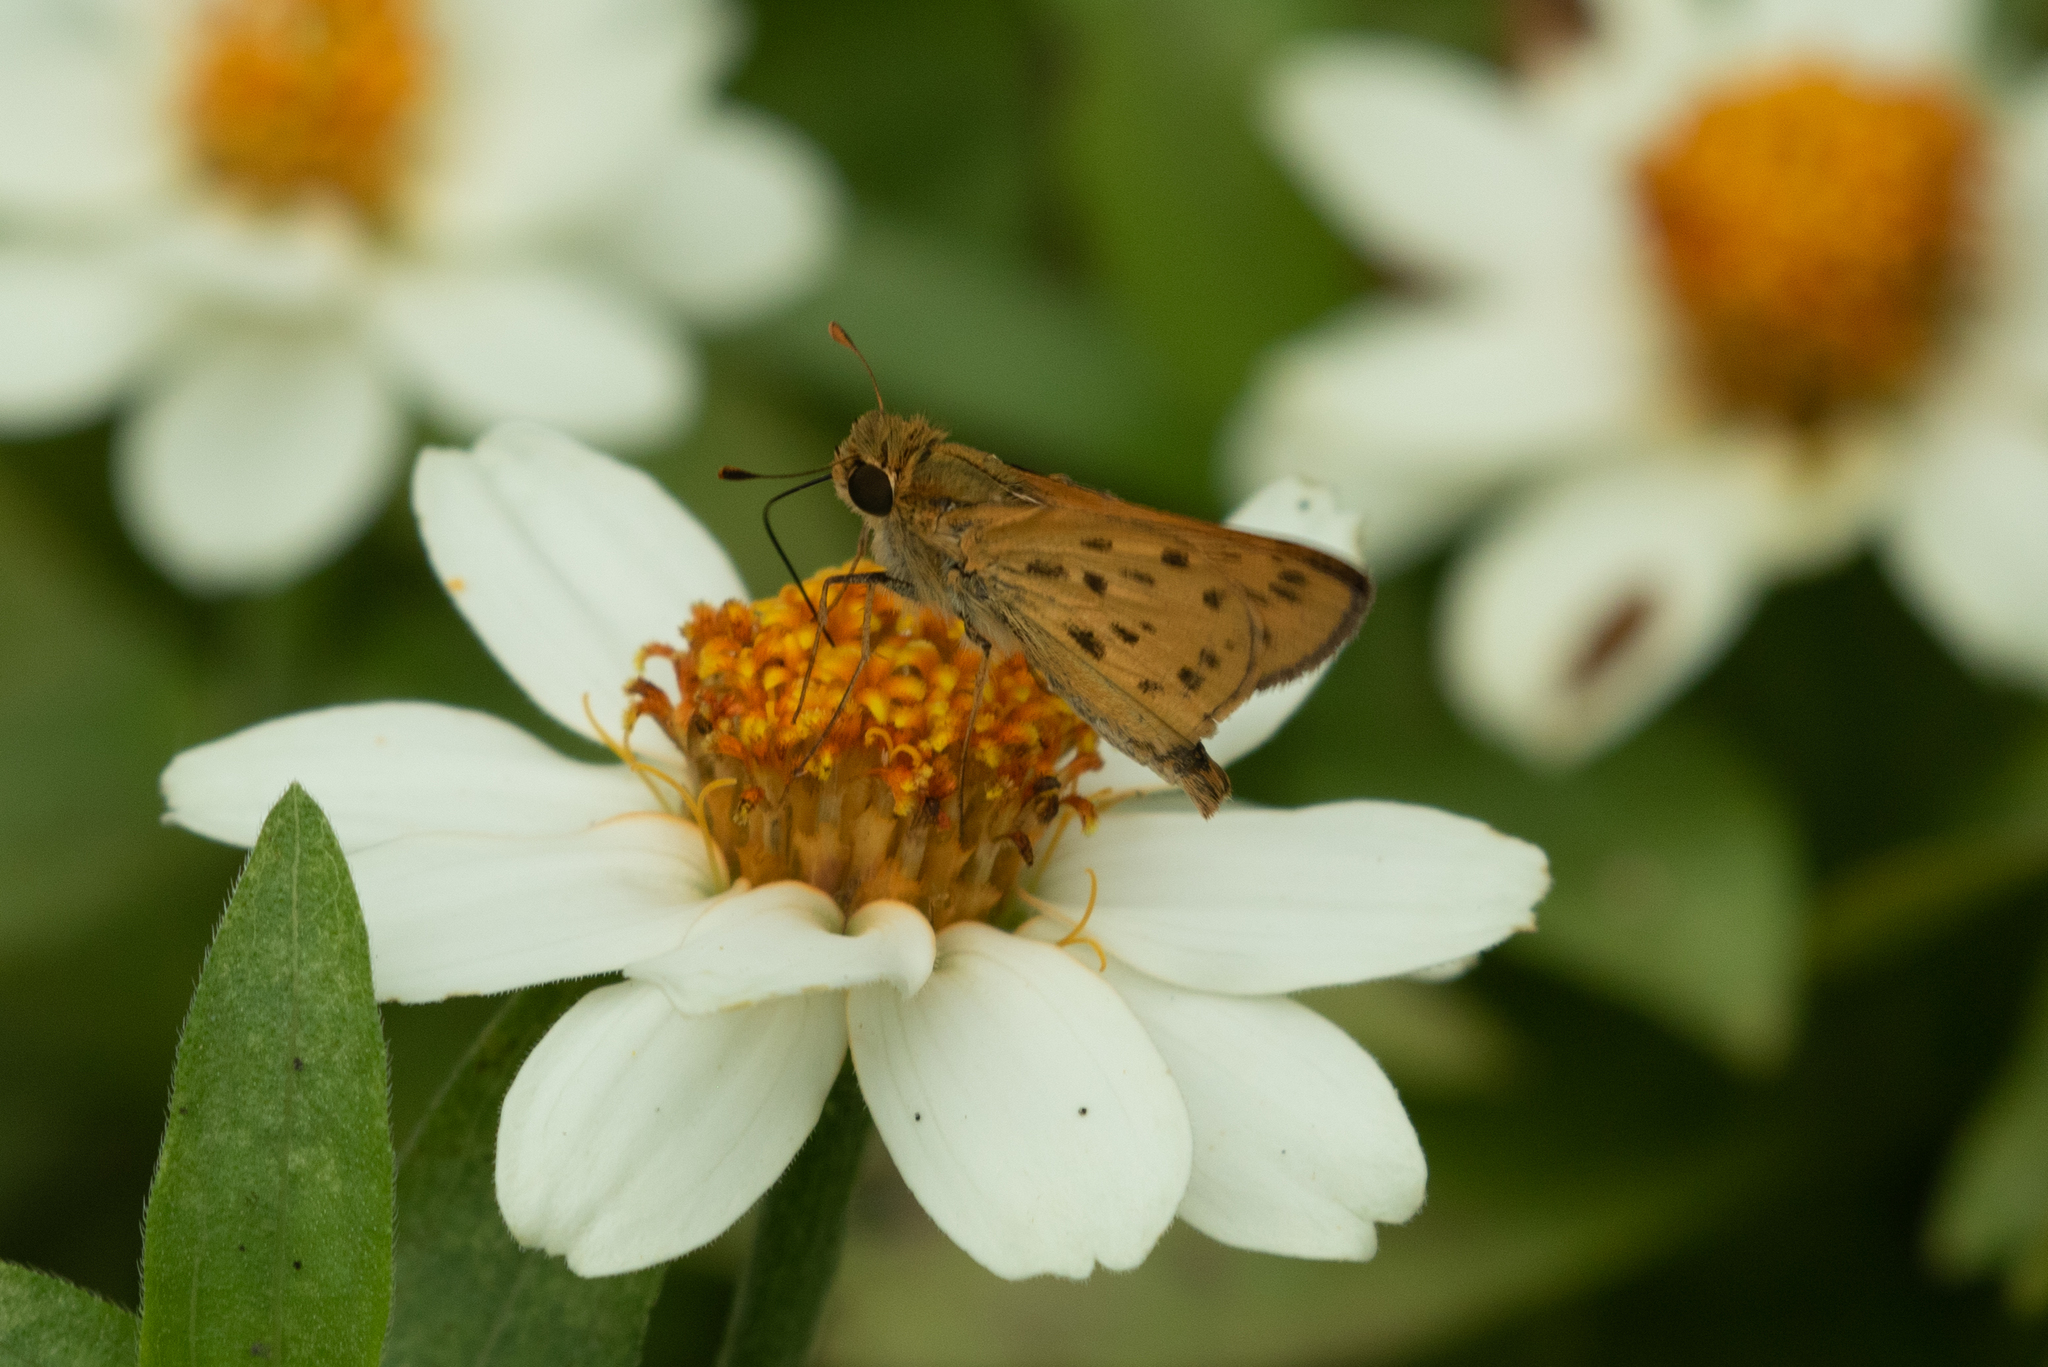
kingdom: Animalia
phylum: Arthropoda
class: Insecta
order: Lepidoptera
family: Hesperiidae
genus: Hylephila
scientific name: Hylephila phyleus
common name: Fiery skipper
